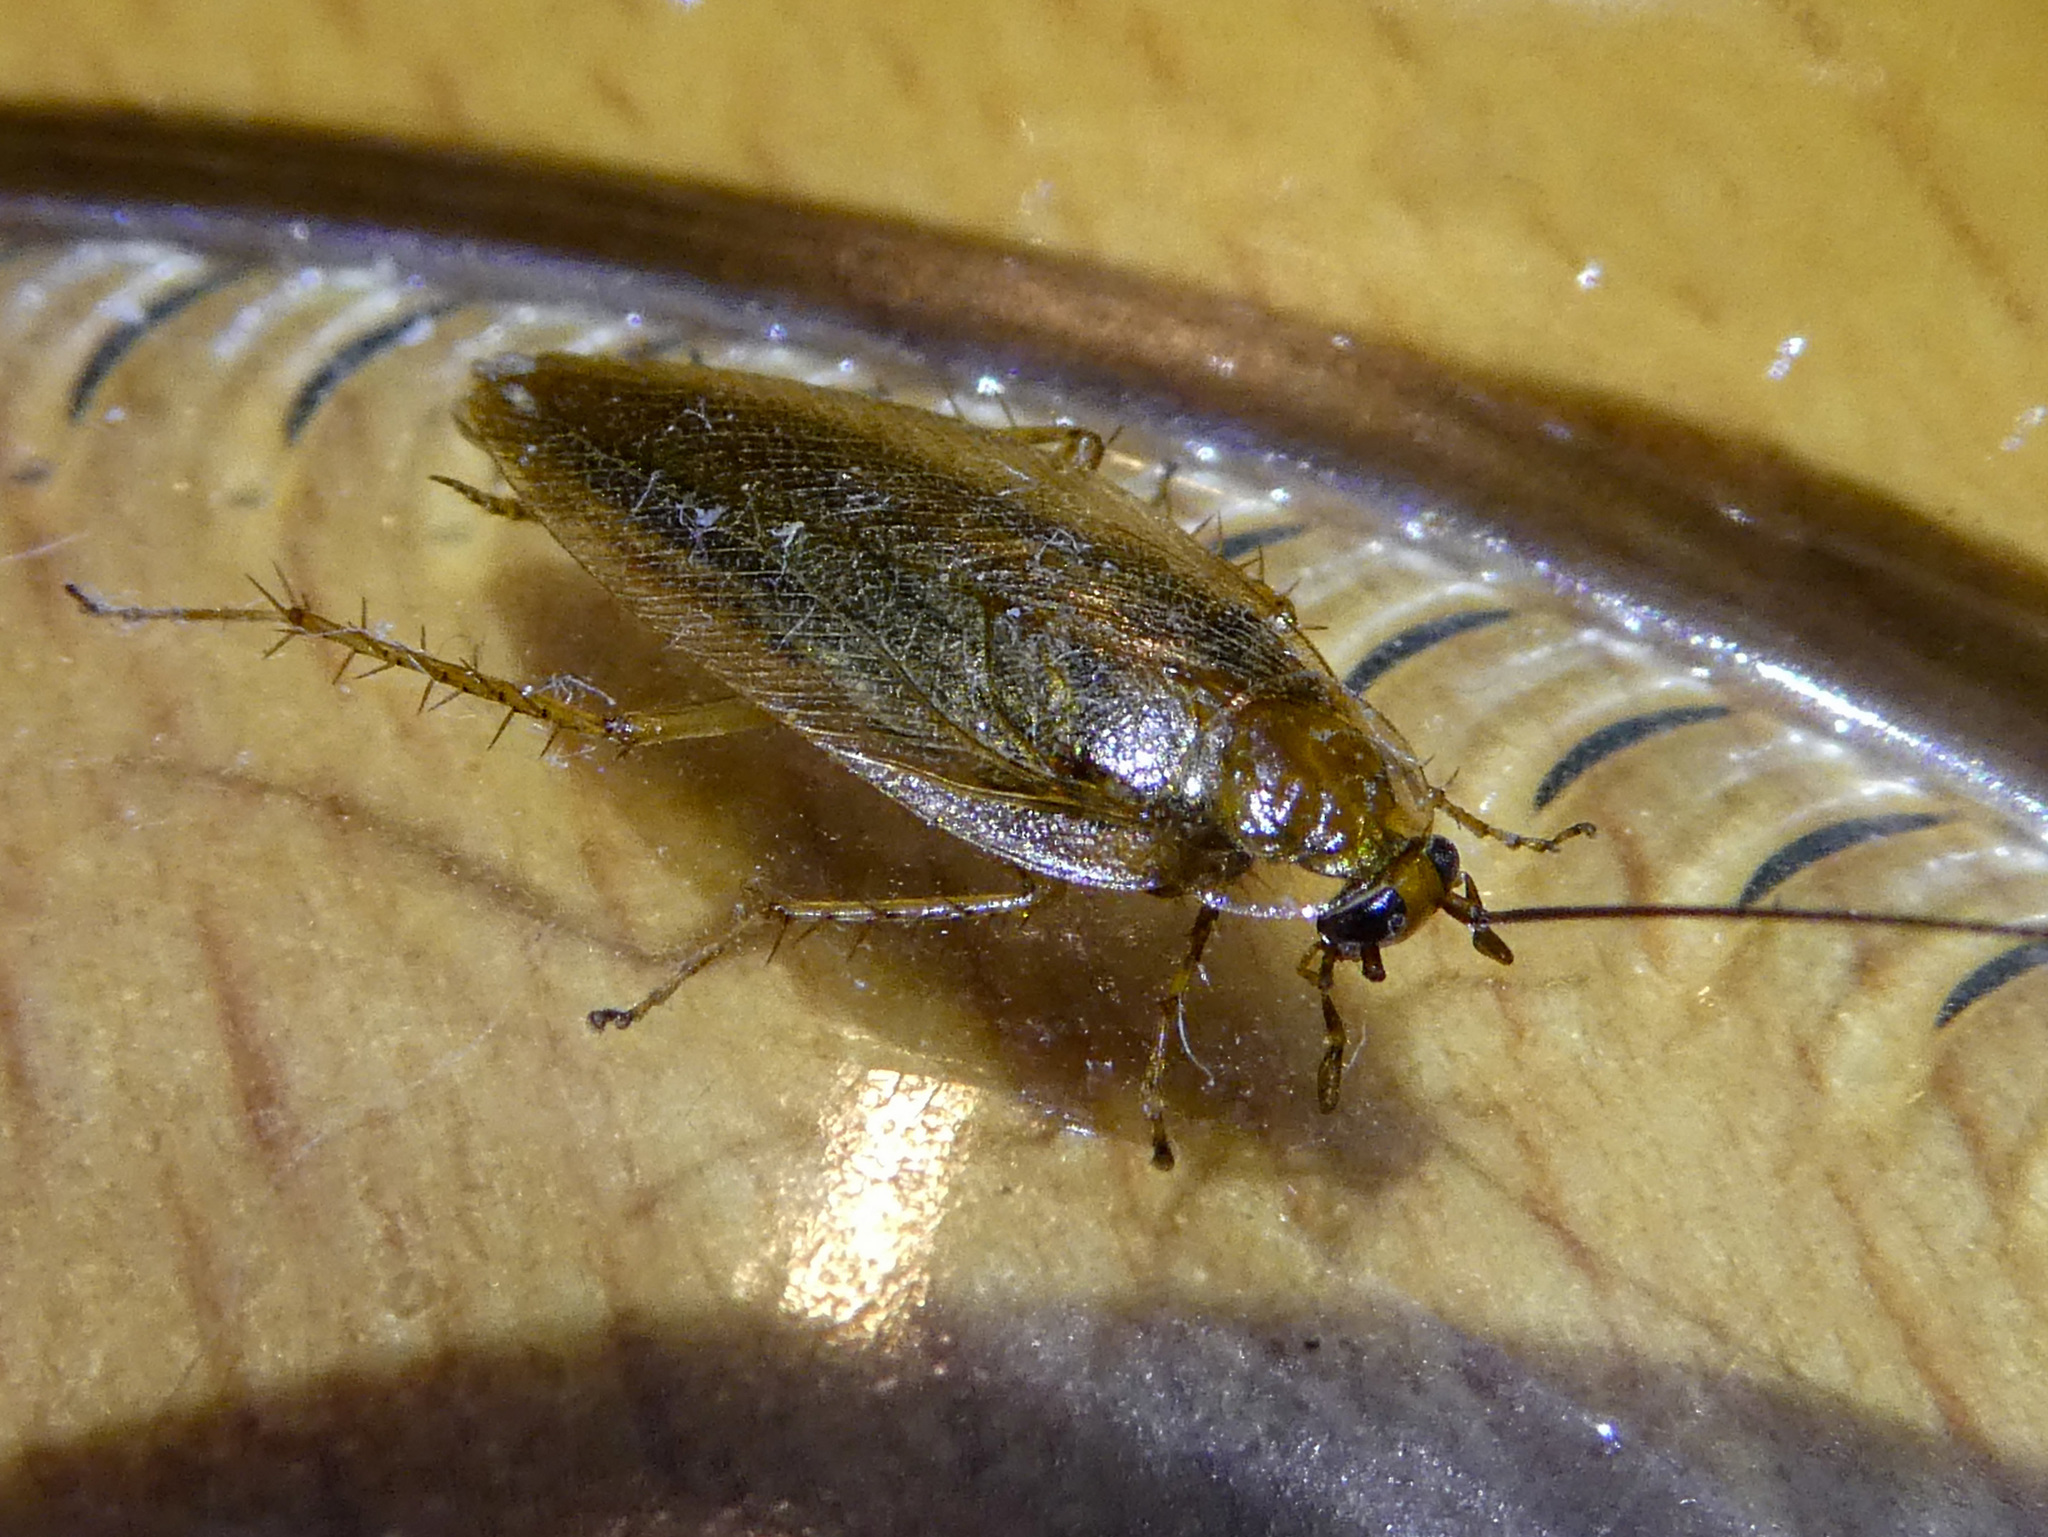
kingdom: Animalia
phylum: Arthropoda
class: Insecta
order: Blattodea
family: Ectobiidae
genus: Ectobius
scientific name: Ectobius vittiventris
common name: Garden cockroach
